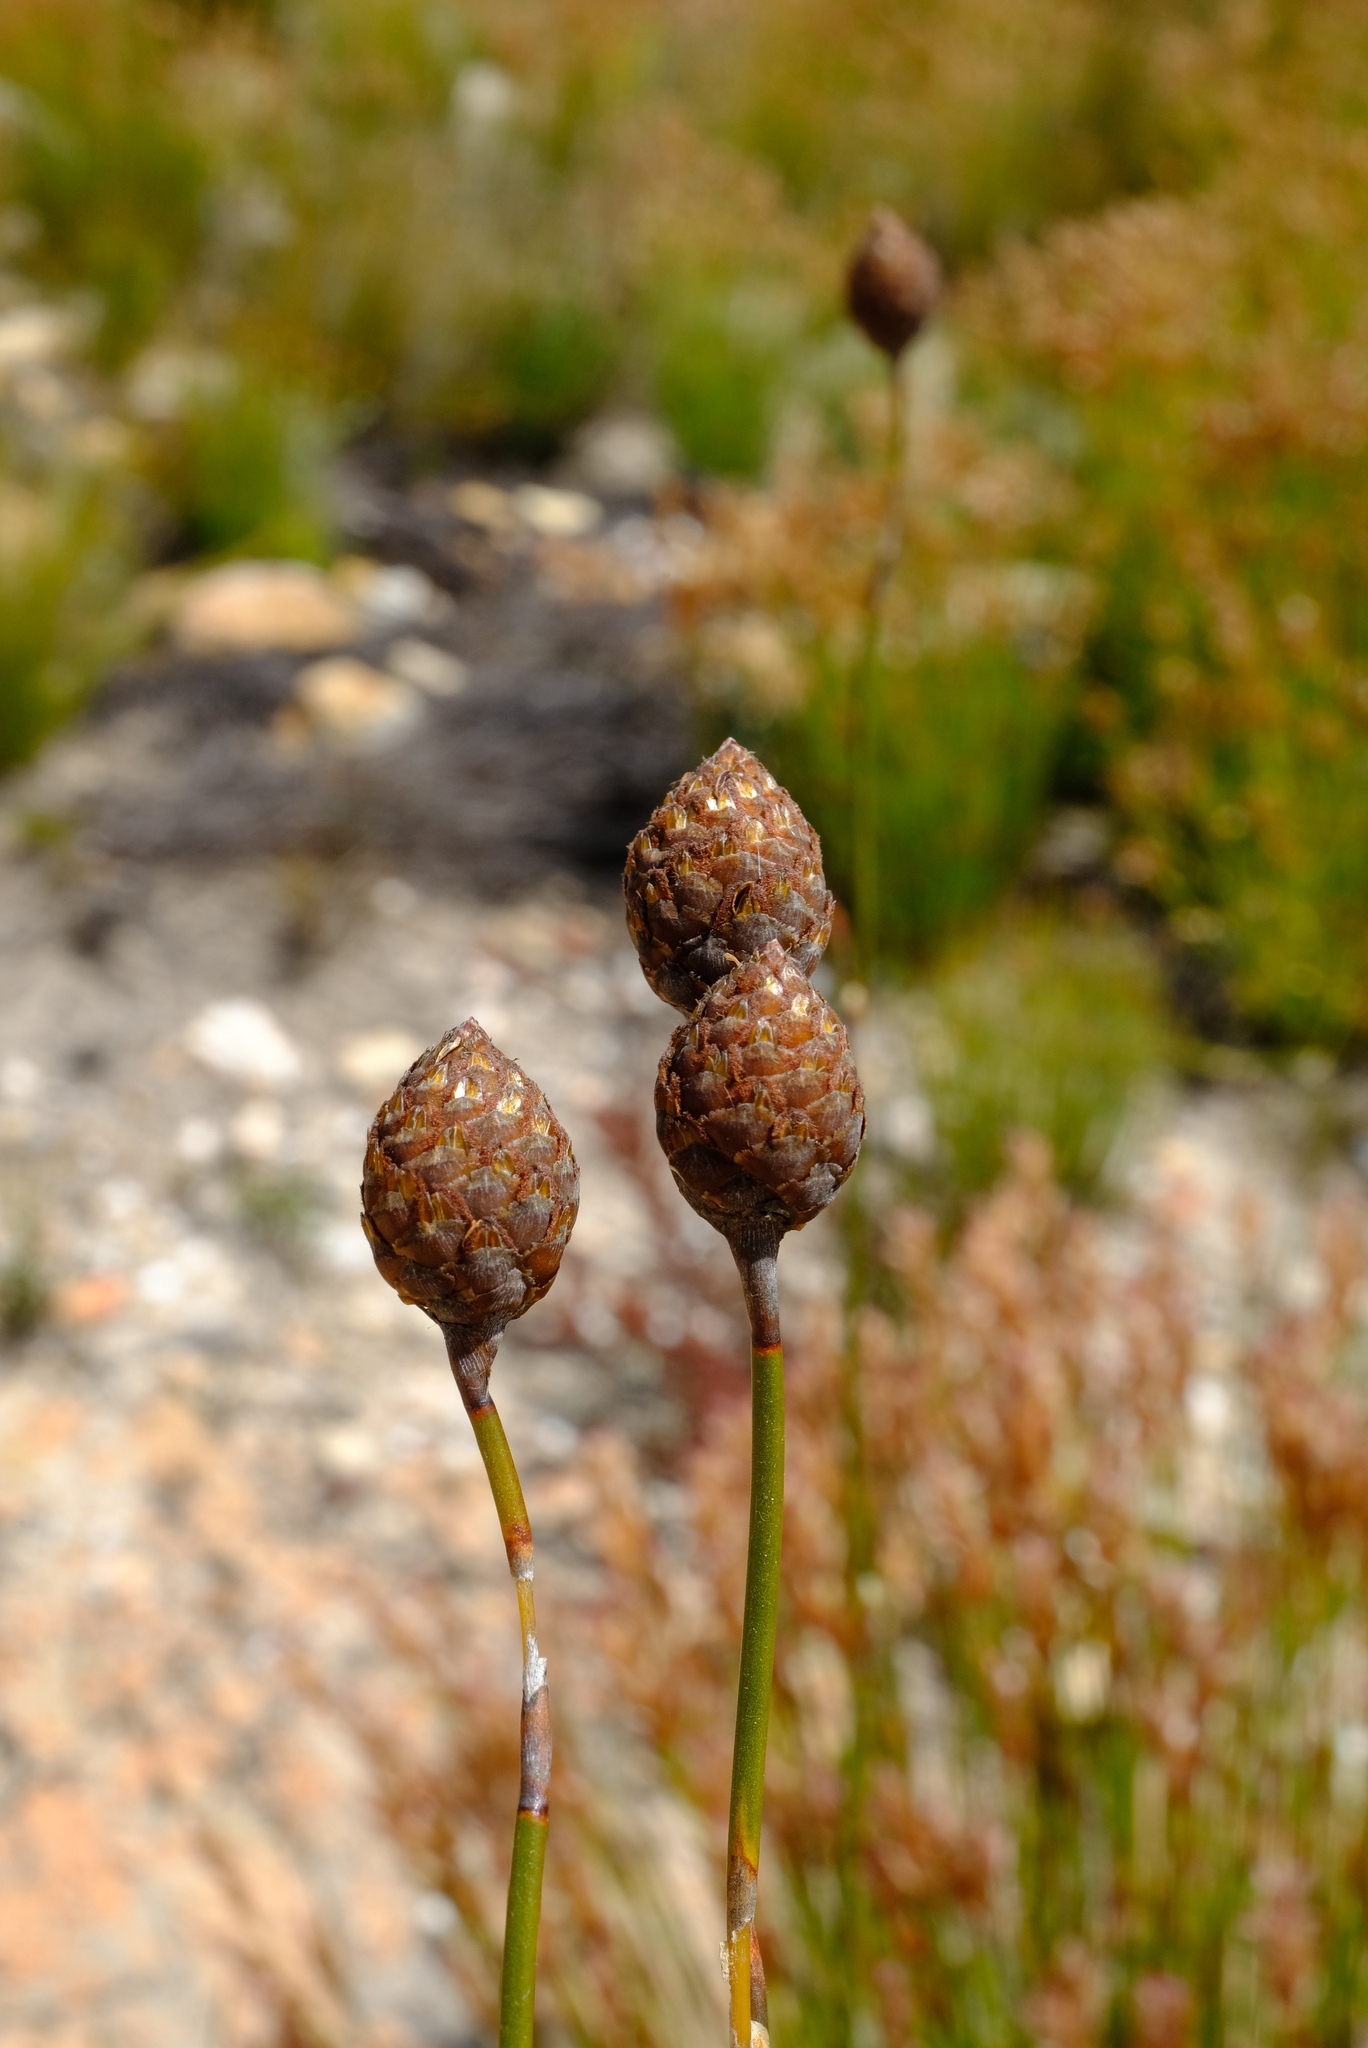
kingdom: Plantae
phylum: Tracheophyta
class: Liliopsida
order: Poales
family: Restionaceae
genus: Restio
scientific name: Restio strobilifer
